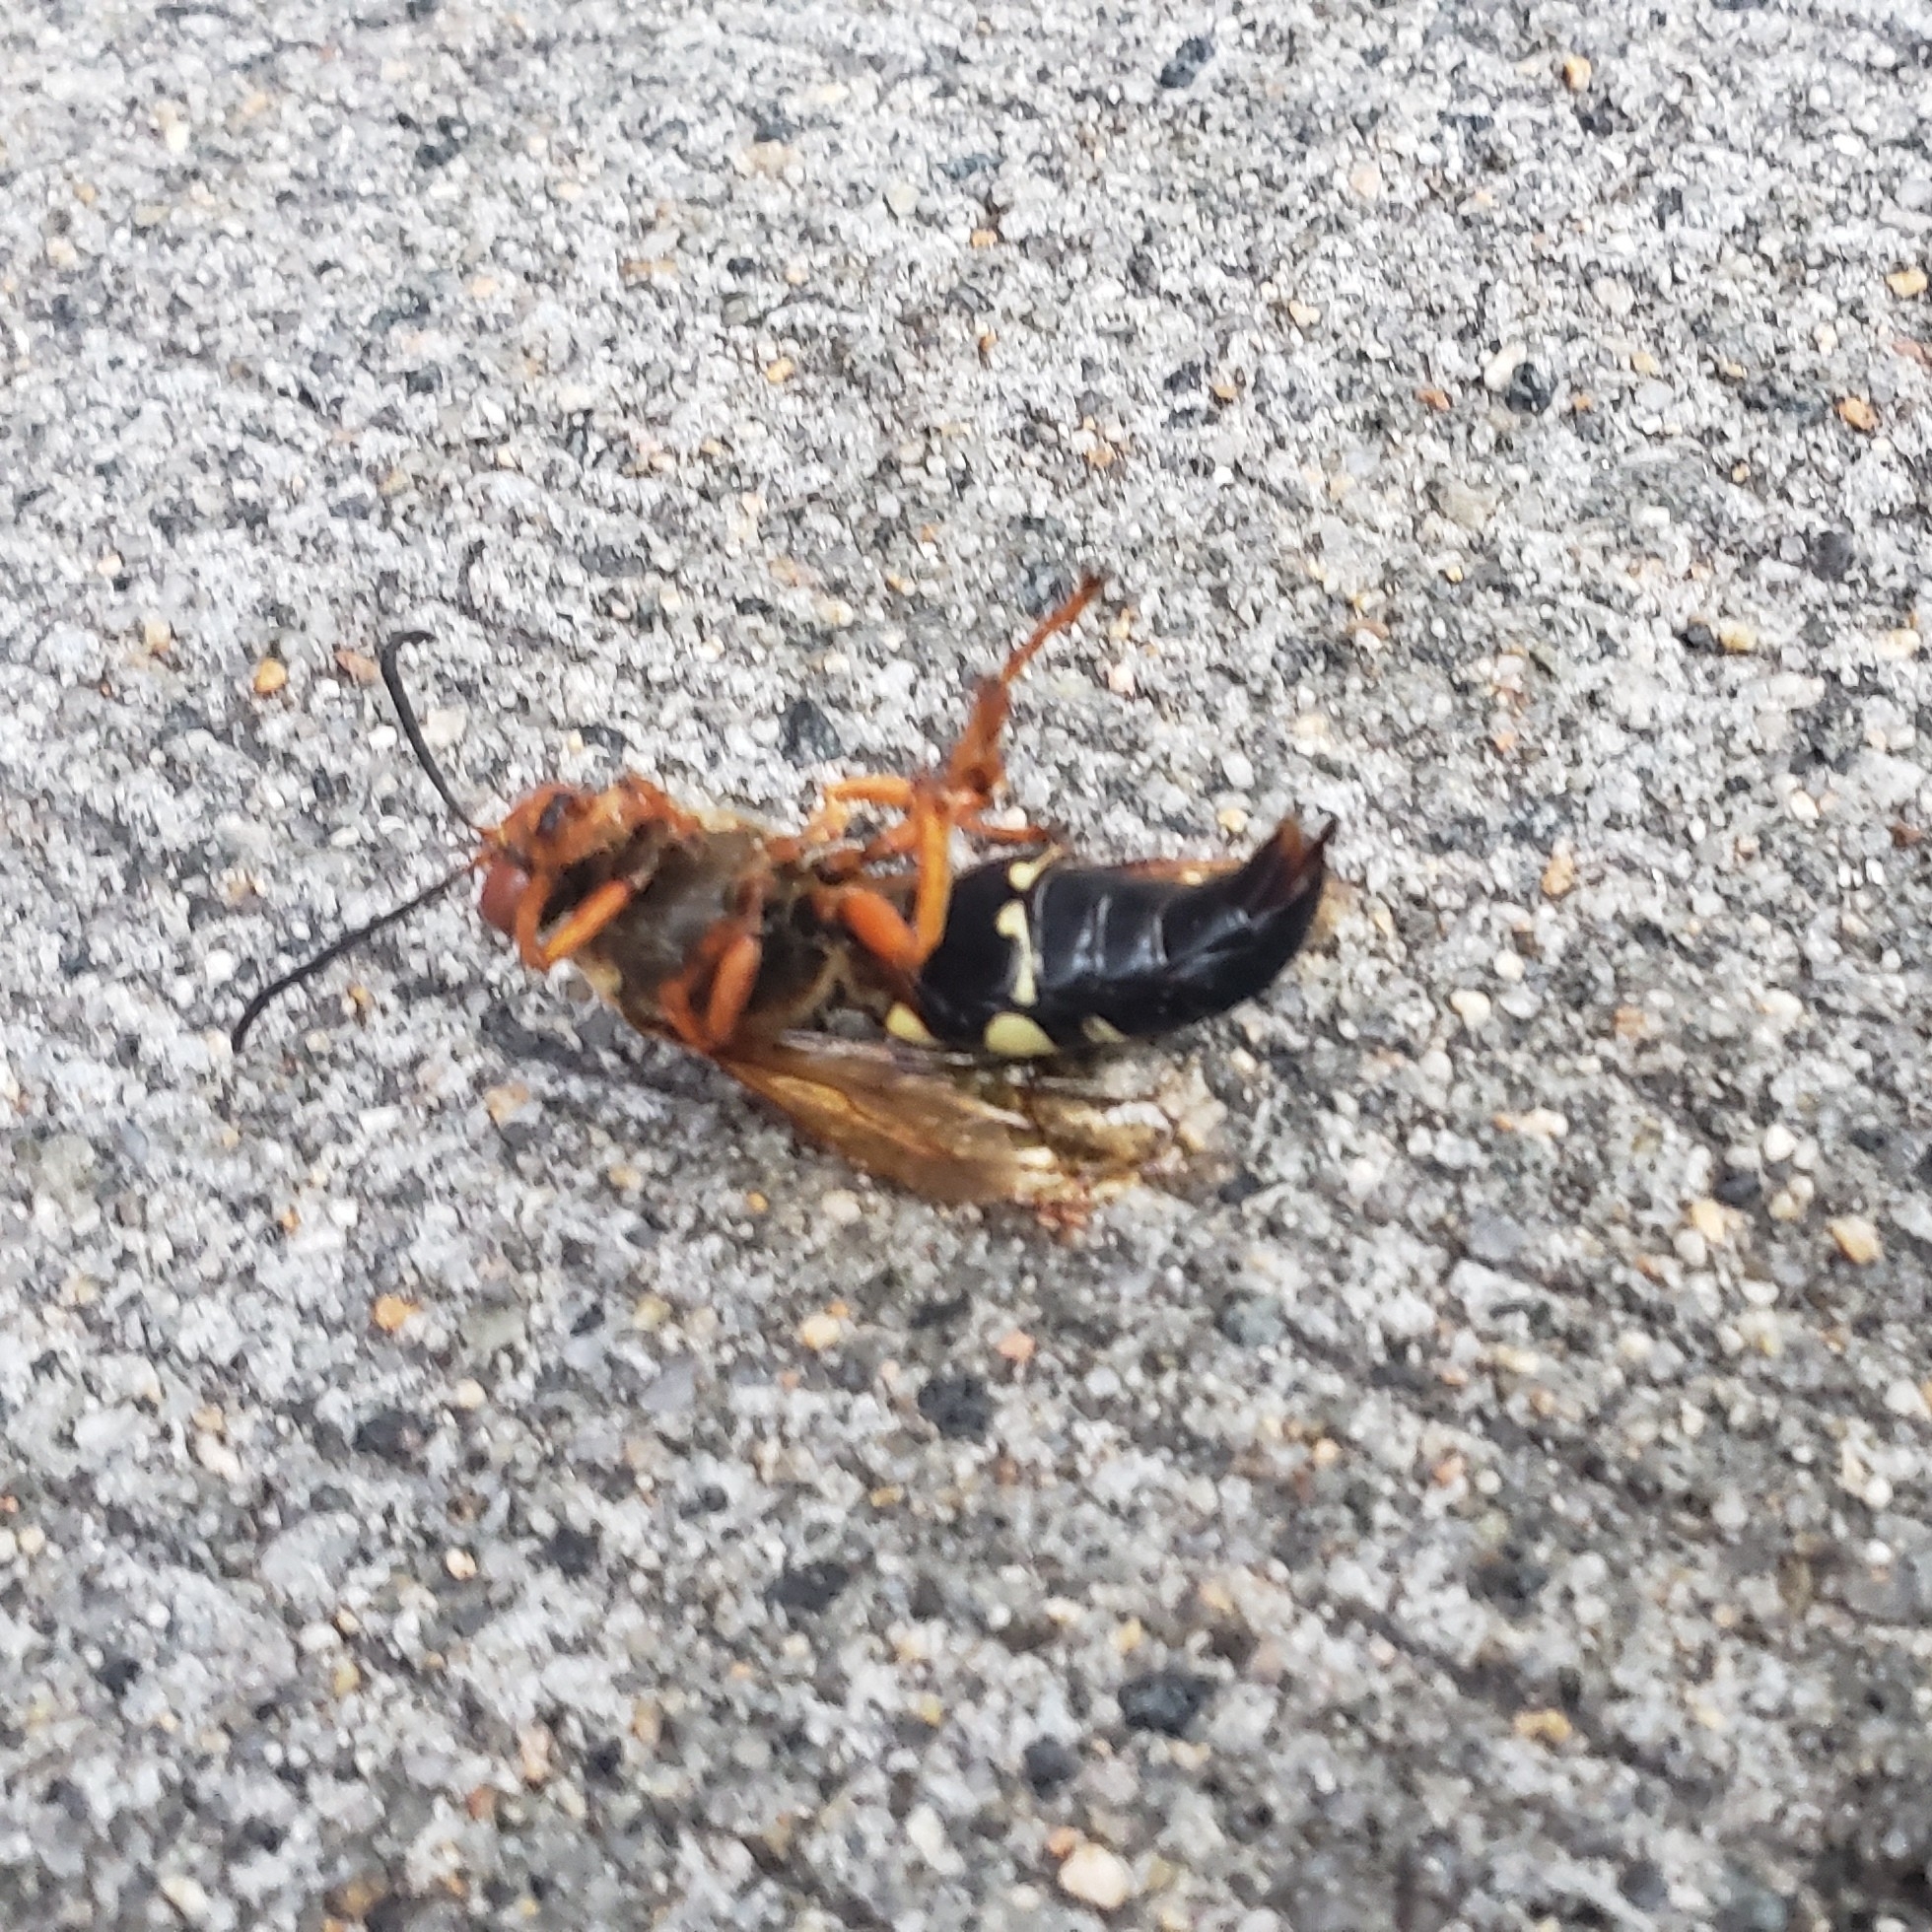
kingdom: Animalia
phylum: Arthropoda
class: Insecta
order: Hymenoptera
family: Crabronidae
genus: Sphecius
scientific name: Sphecius speciosus
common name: Cicada killer
